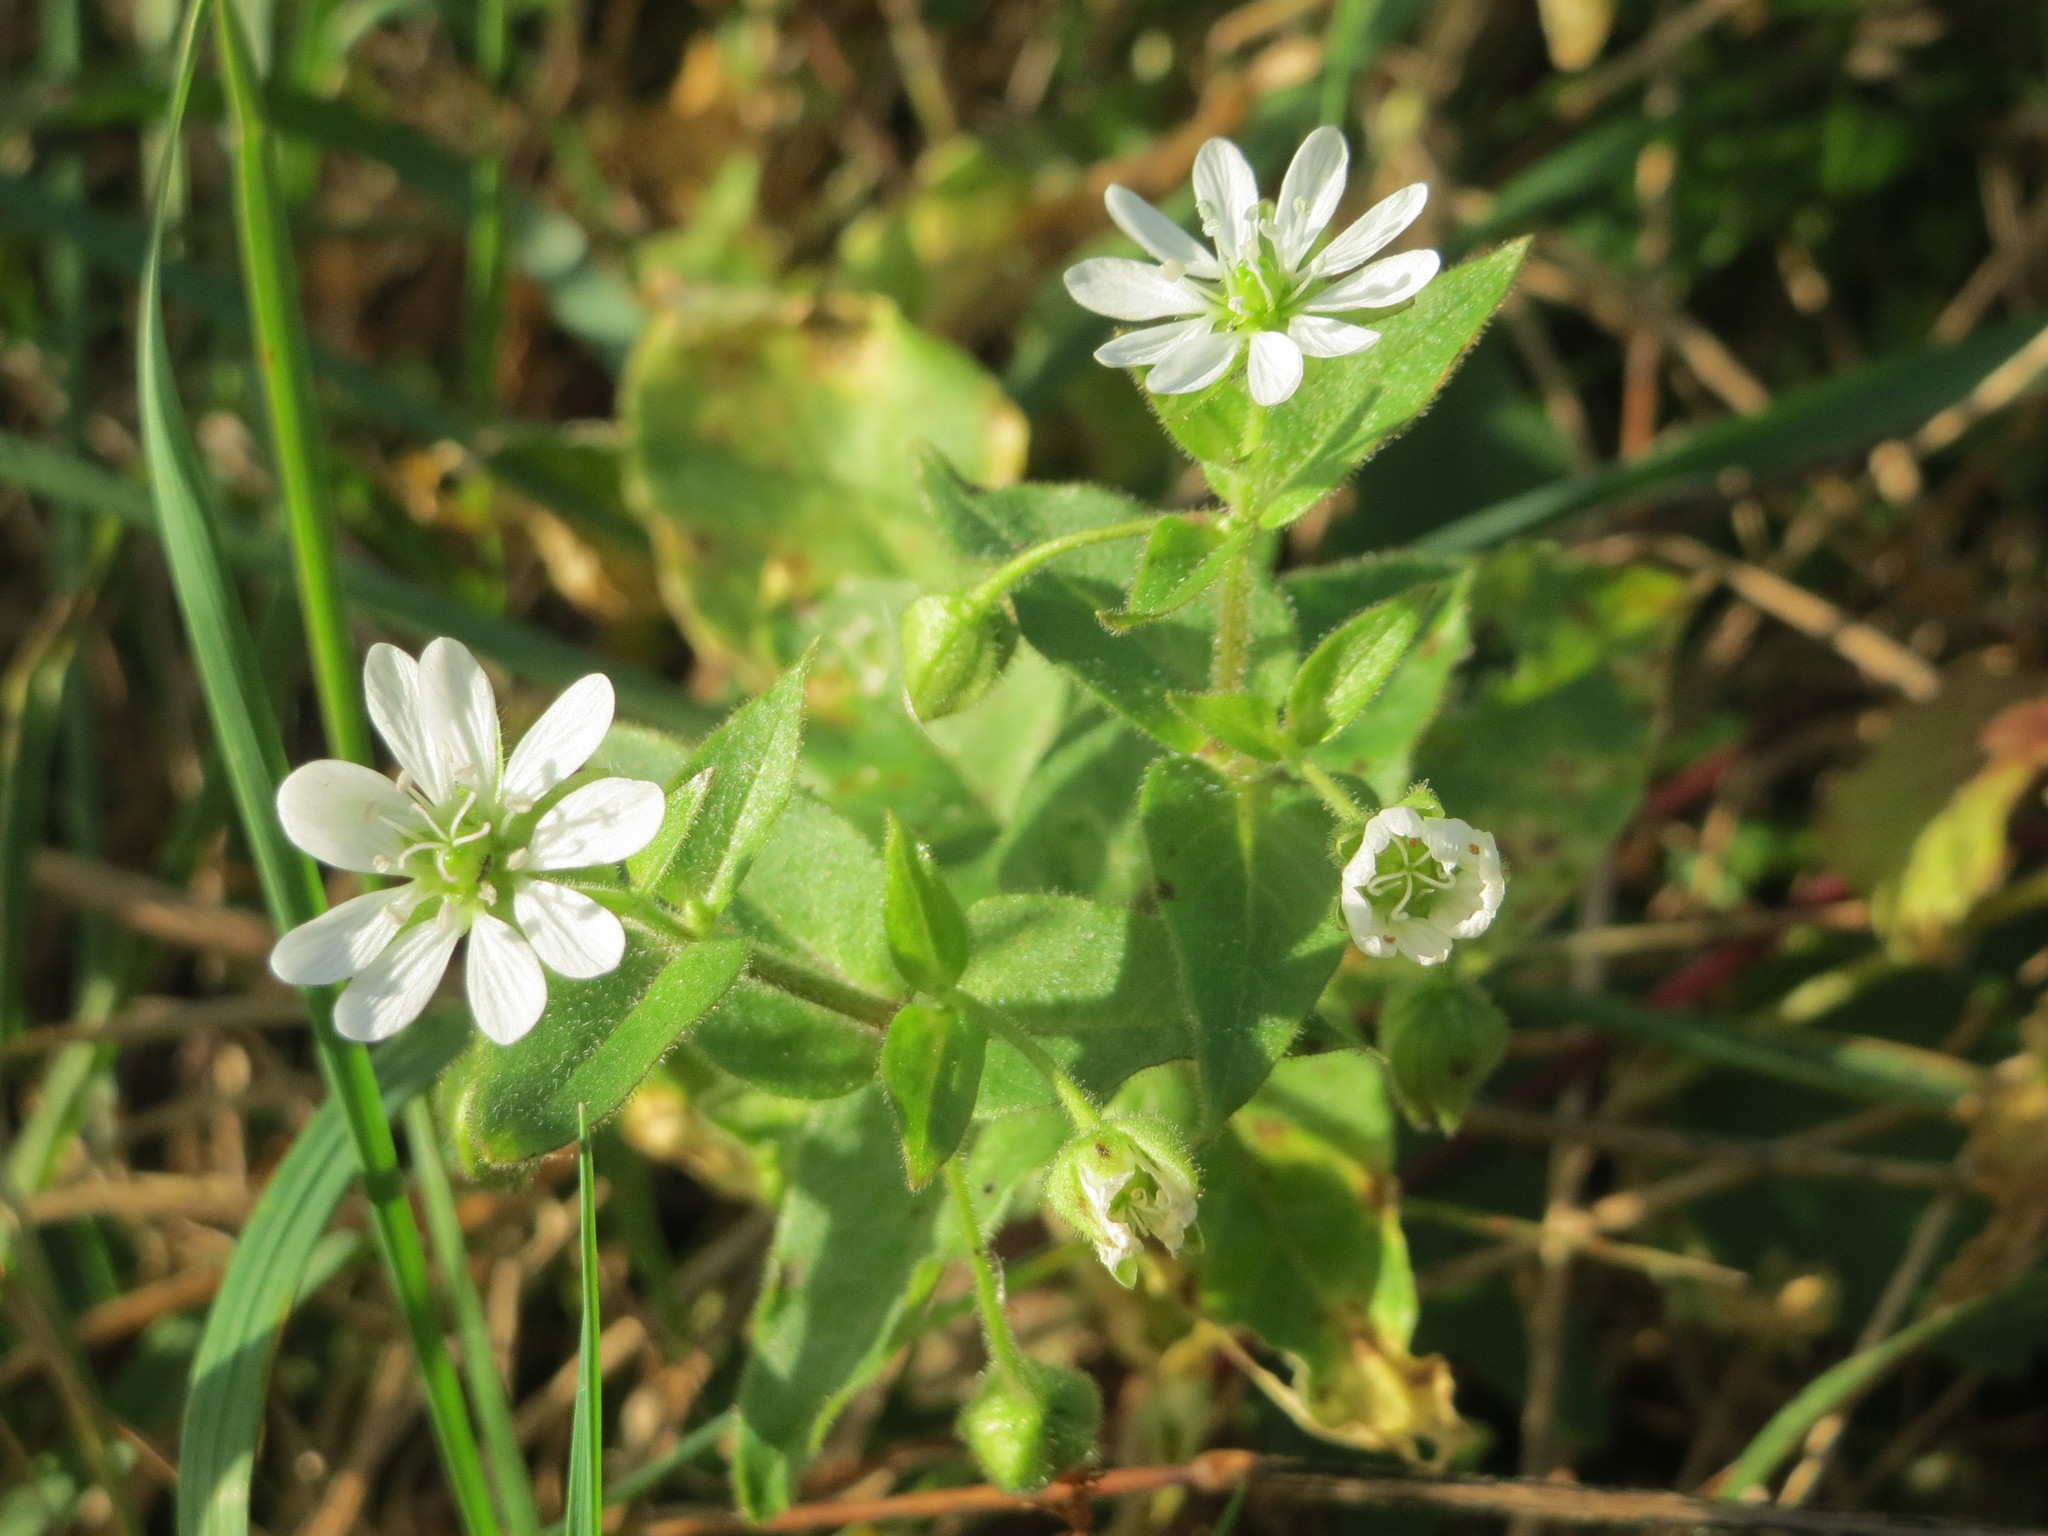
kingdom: Plantae
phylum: Tracheophyta
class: Magnoliopsida
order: Caryophyllales
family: Caryophyllaceae
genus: Stellaria
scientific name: Stellaria aquatica
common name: Water chickweed
